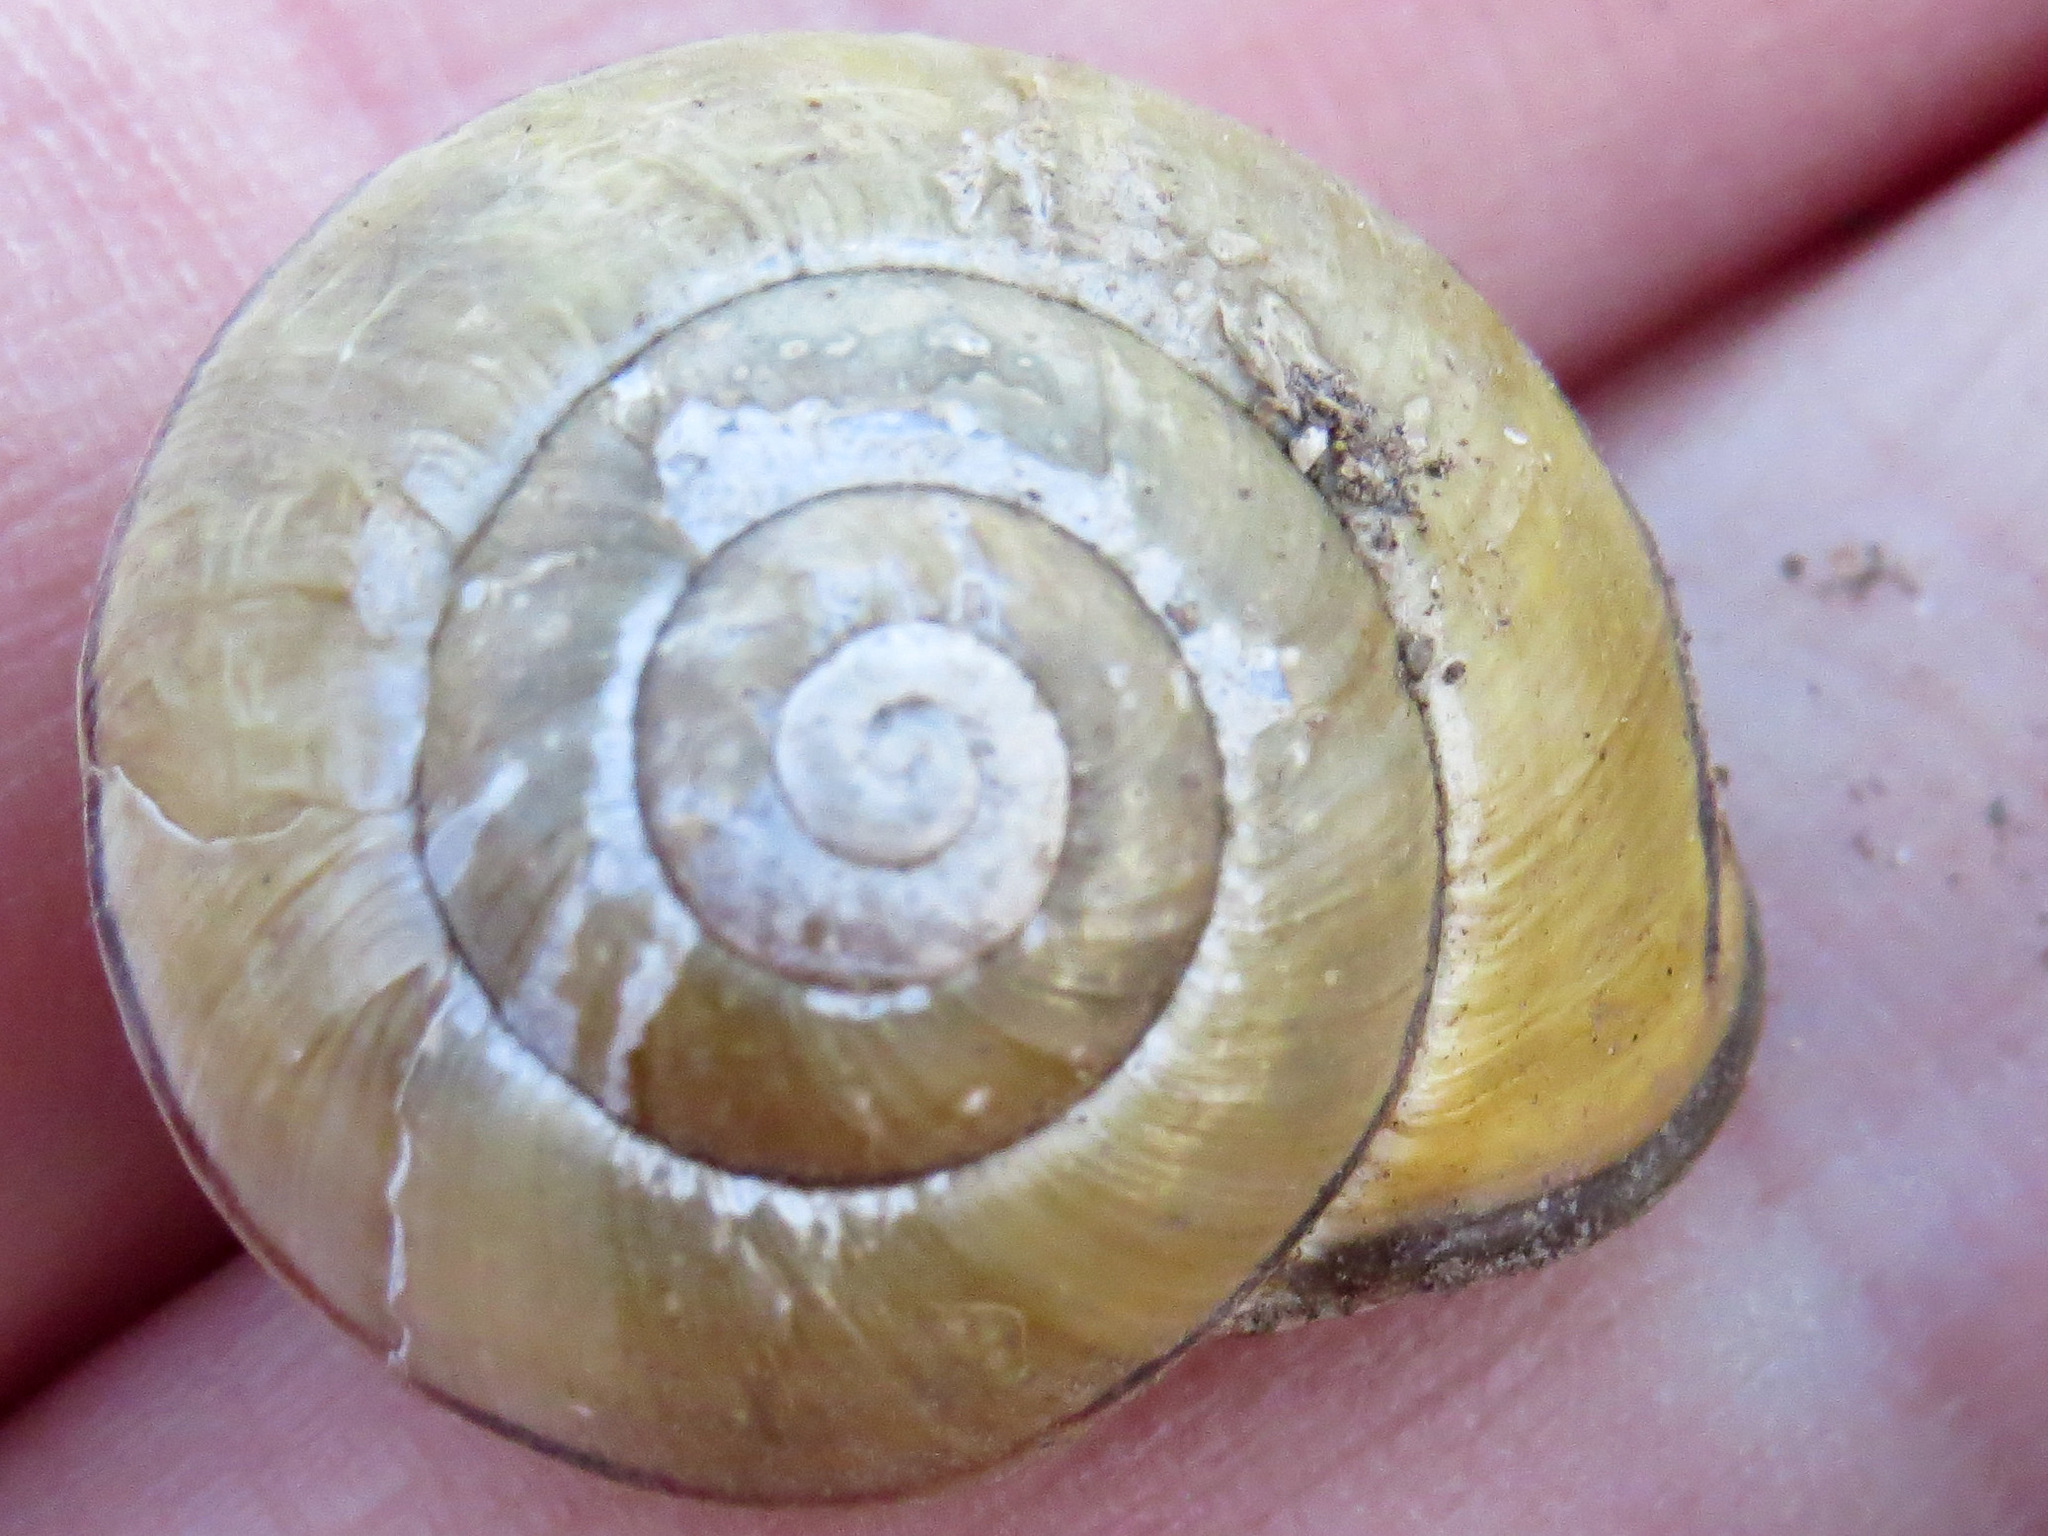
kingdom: Animalia
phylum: Mollusca
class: Gastropoda
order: Stylommatophora
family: Helicidae
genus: Cepaea
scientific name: Cepaea nemoralis
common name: Grovesnail
